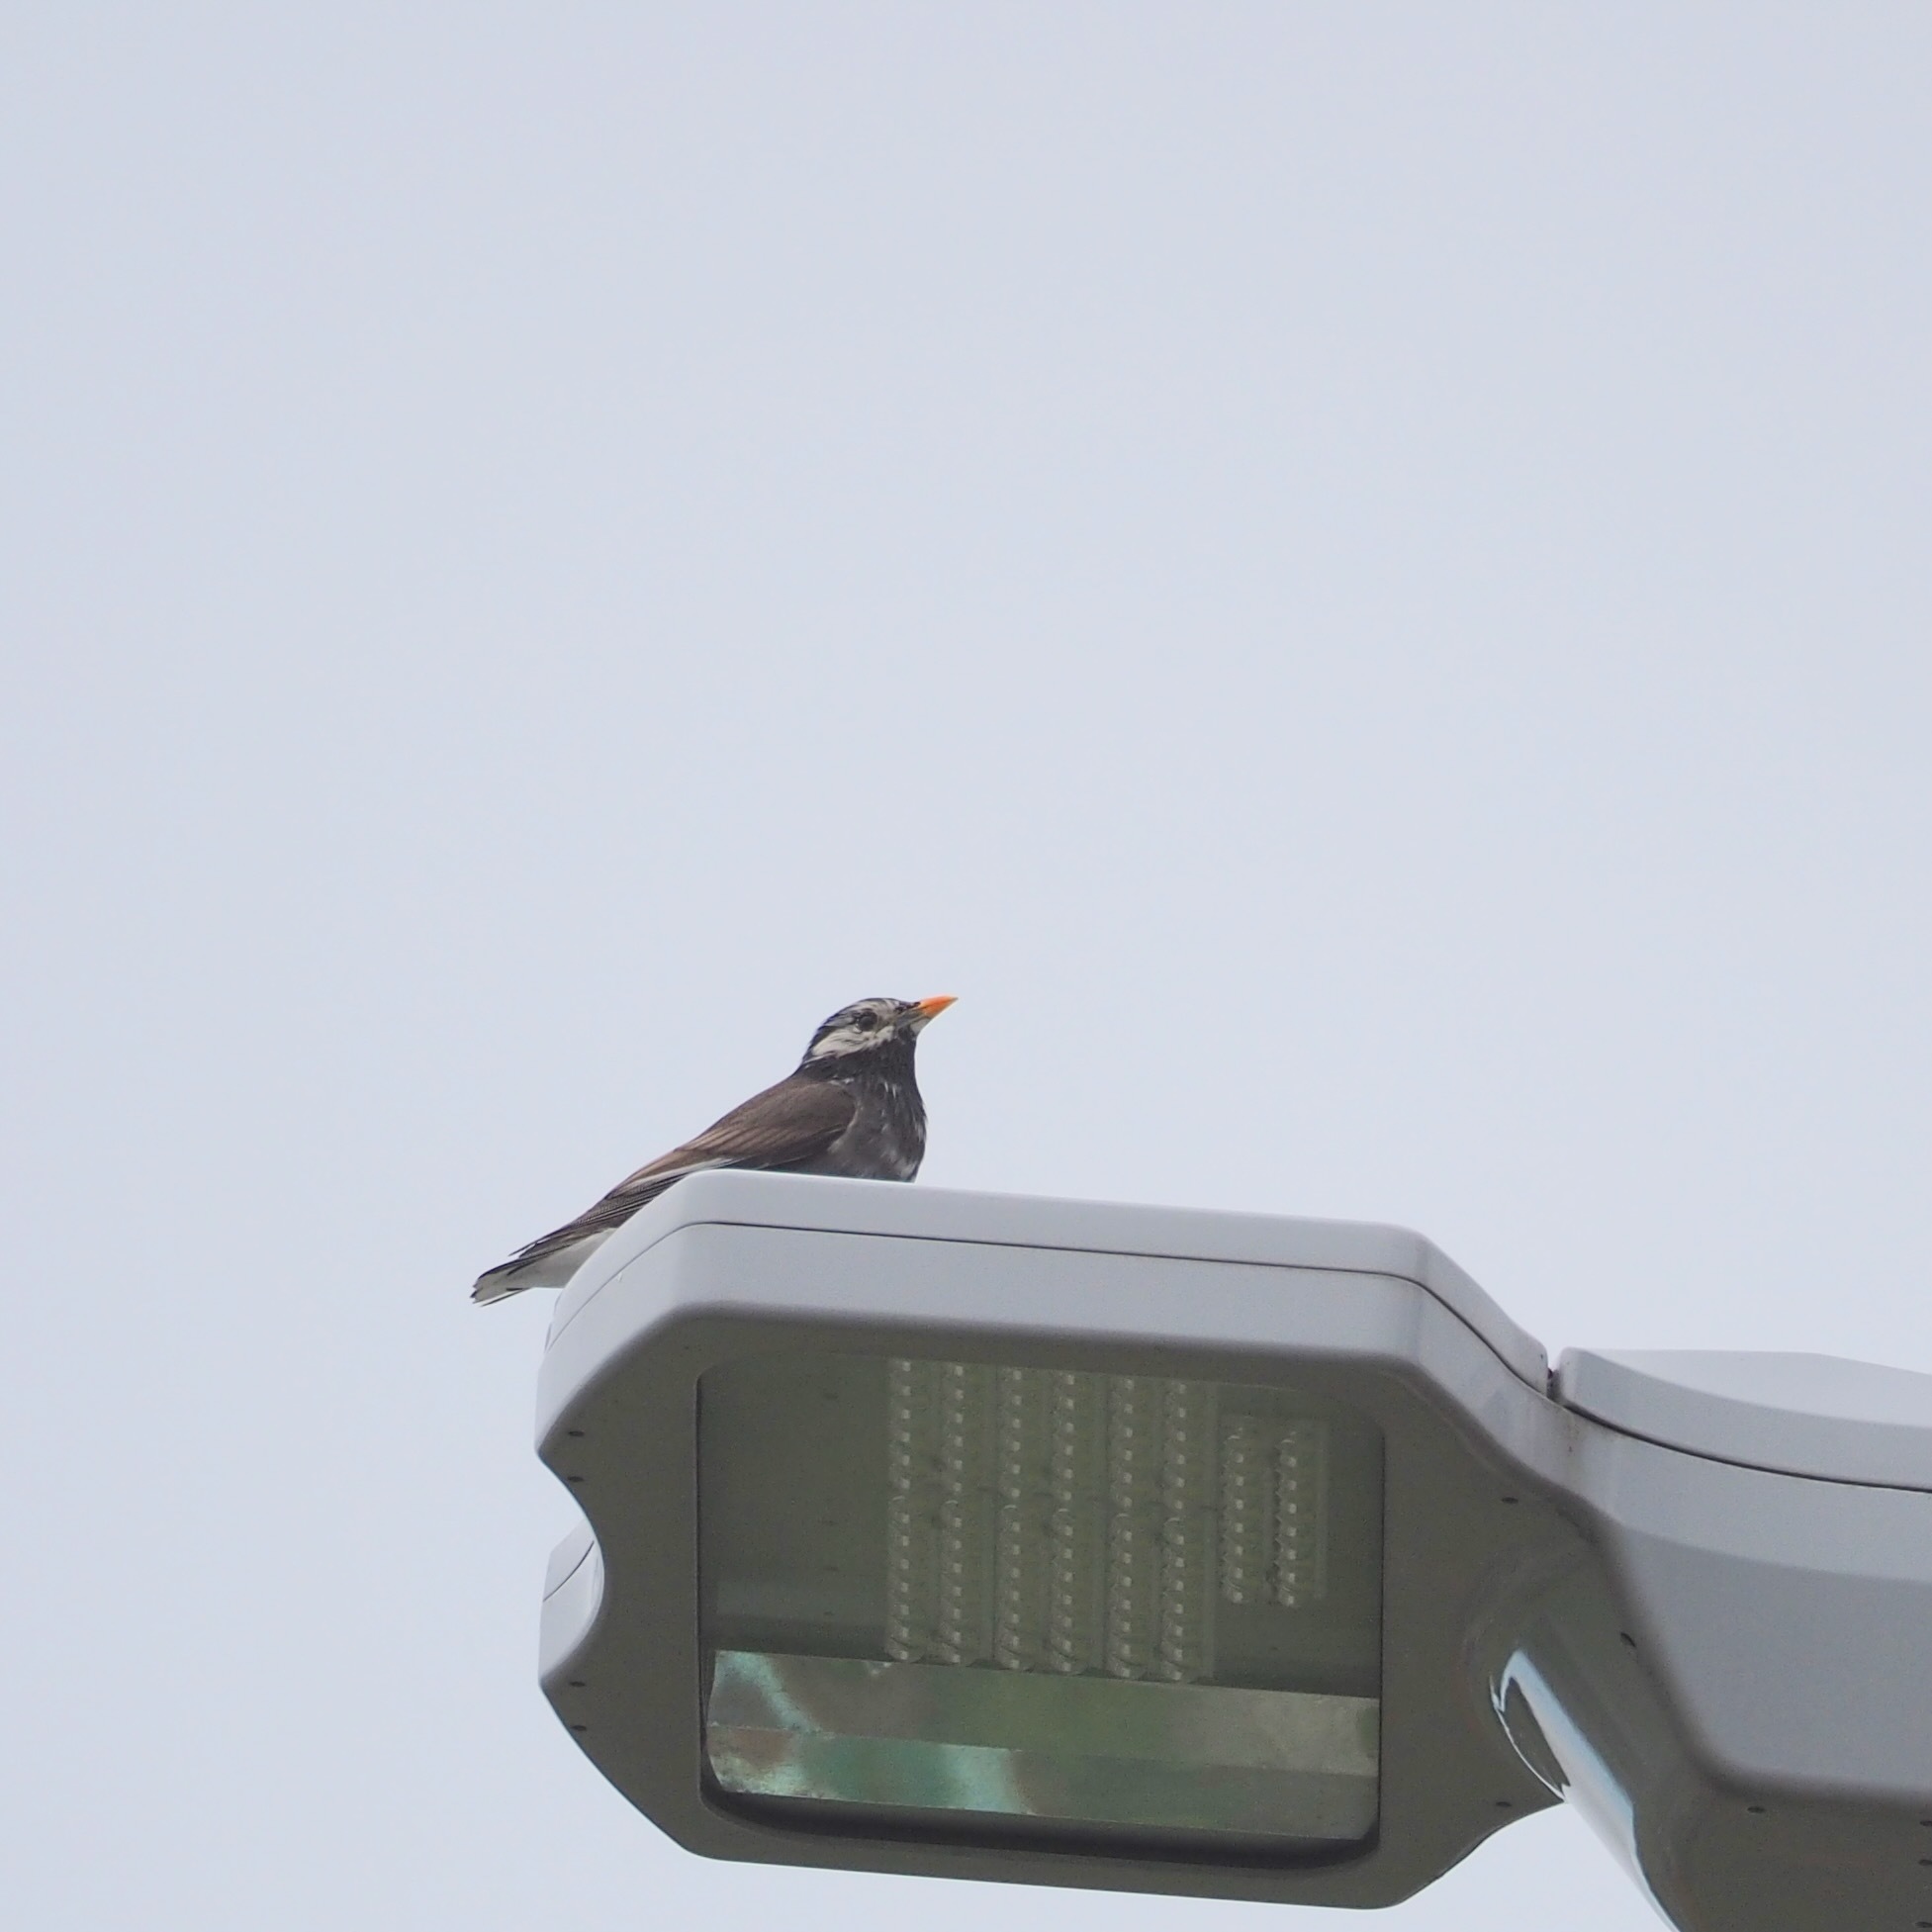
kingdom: Animalia
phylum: Chordata
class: Aves
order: Passeriformes
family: Sturnidae
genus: Spodiopsar
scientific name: Spodiopsar cineraceus
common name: White-cheeked starling
